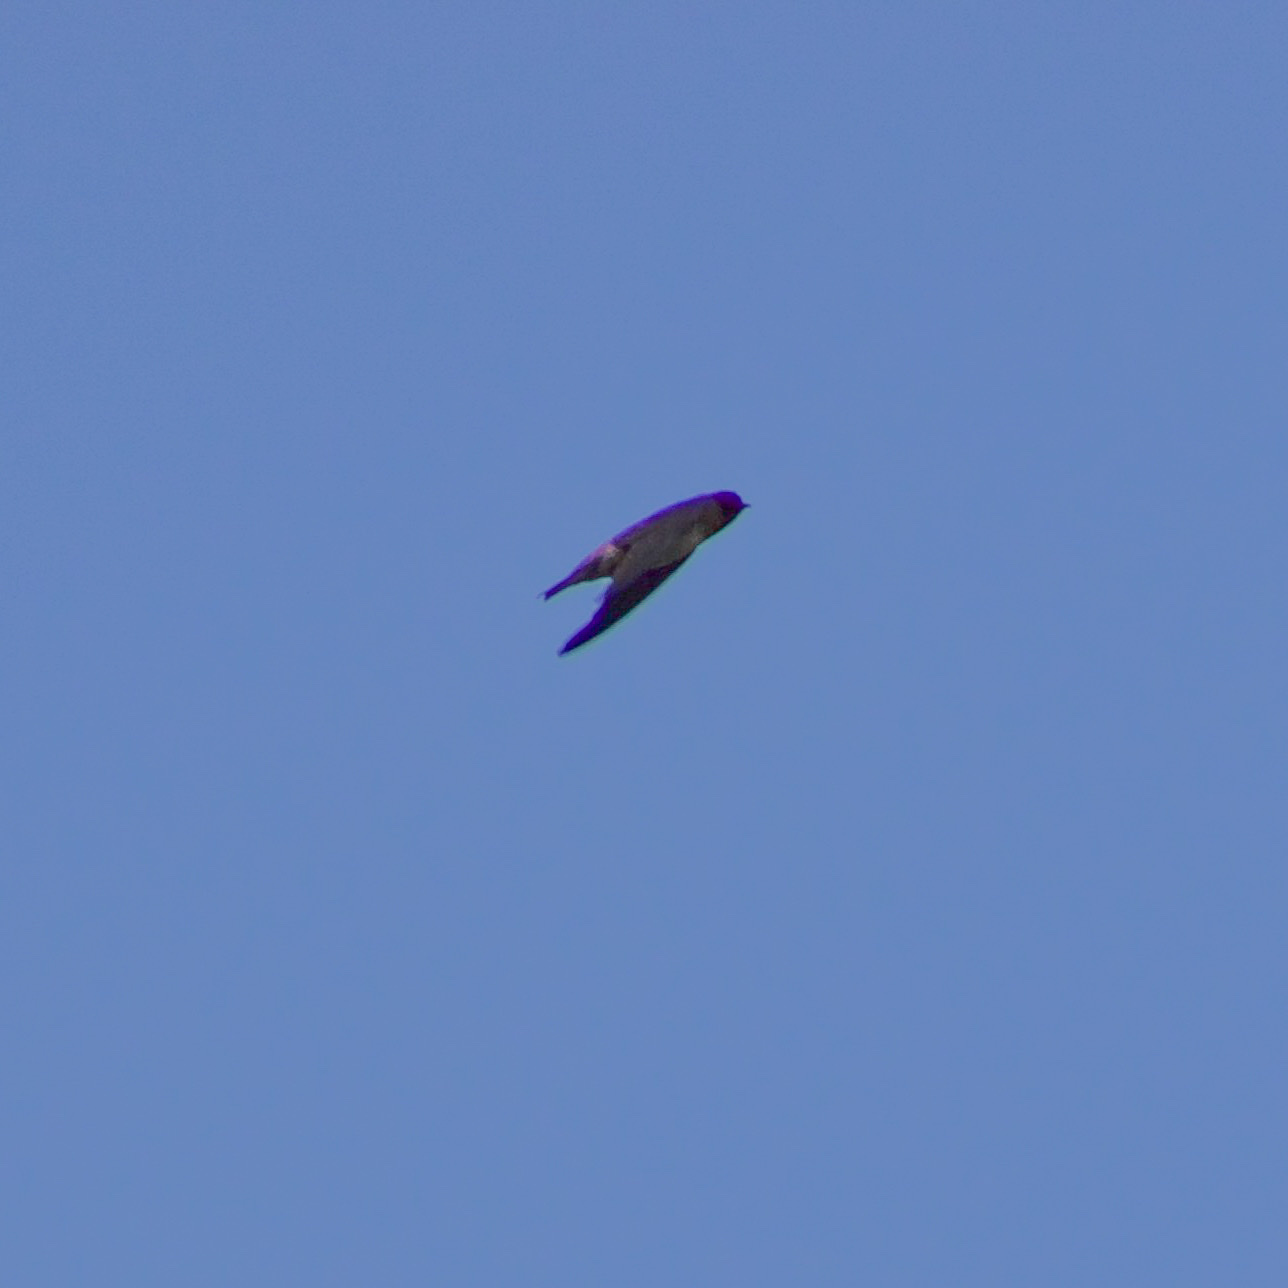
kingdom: Animalia
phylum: Chordata
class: Aves
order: Passeriformes
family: Hirundinidae
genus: Petrochelidon
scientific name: Petrochelidon pyrrhonota
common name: American cliff swallow
